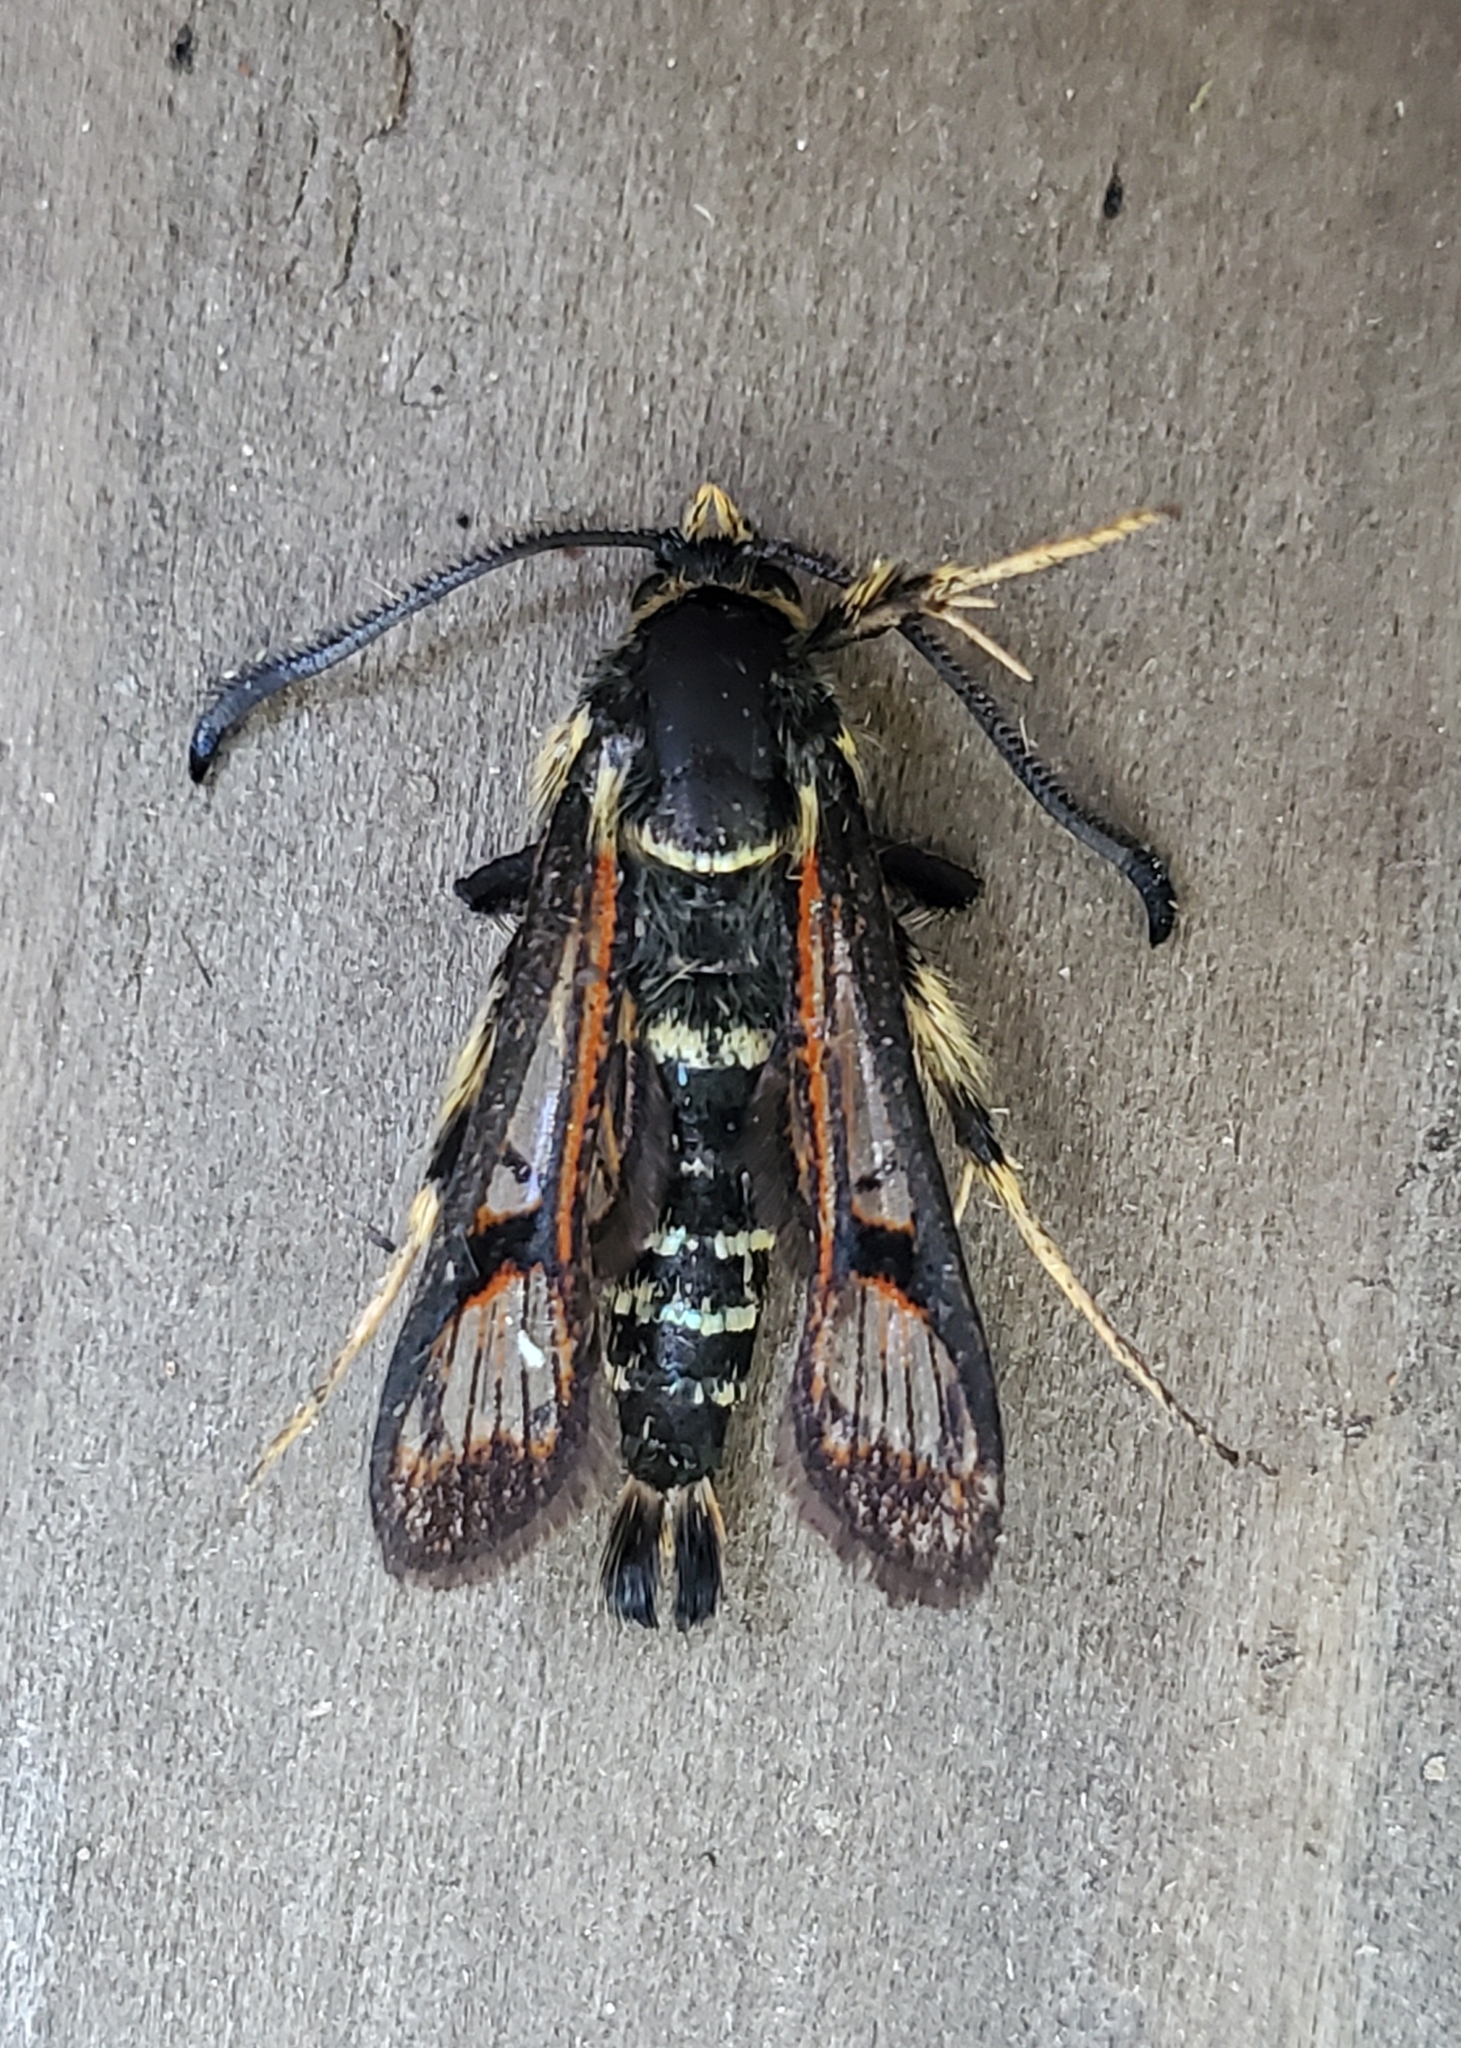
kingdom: Animalia
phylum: Arthropoda
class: Insecta
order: Lepidoptera
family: Sesiidae
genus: Albuna
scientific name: Albuna pyramidalis
